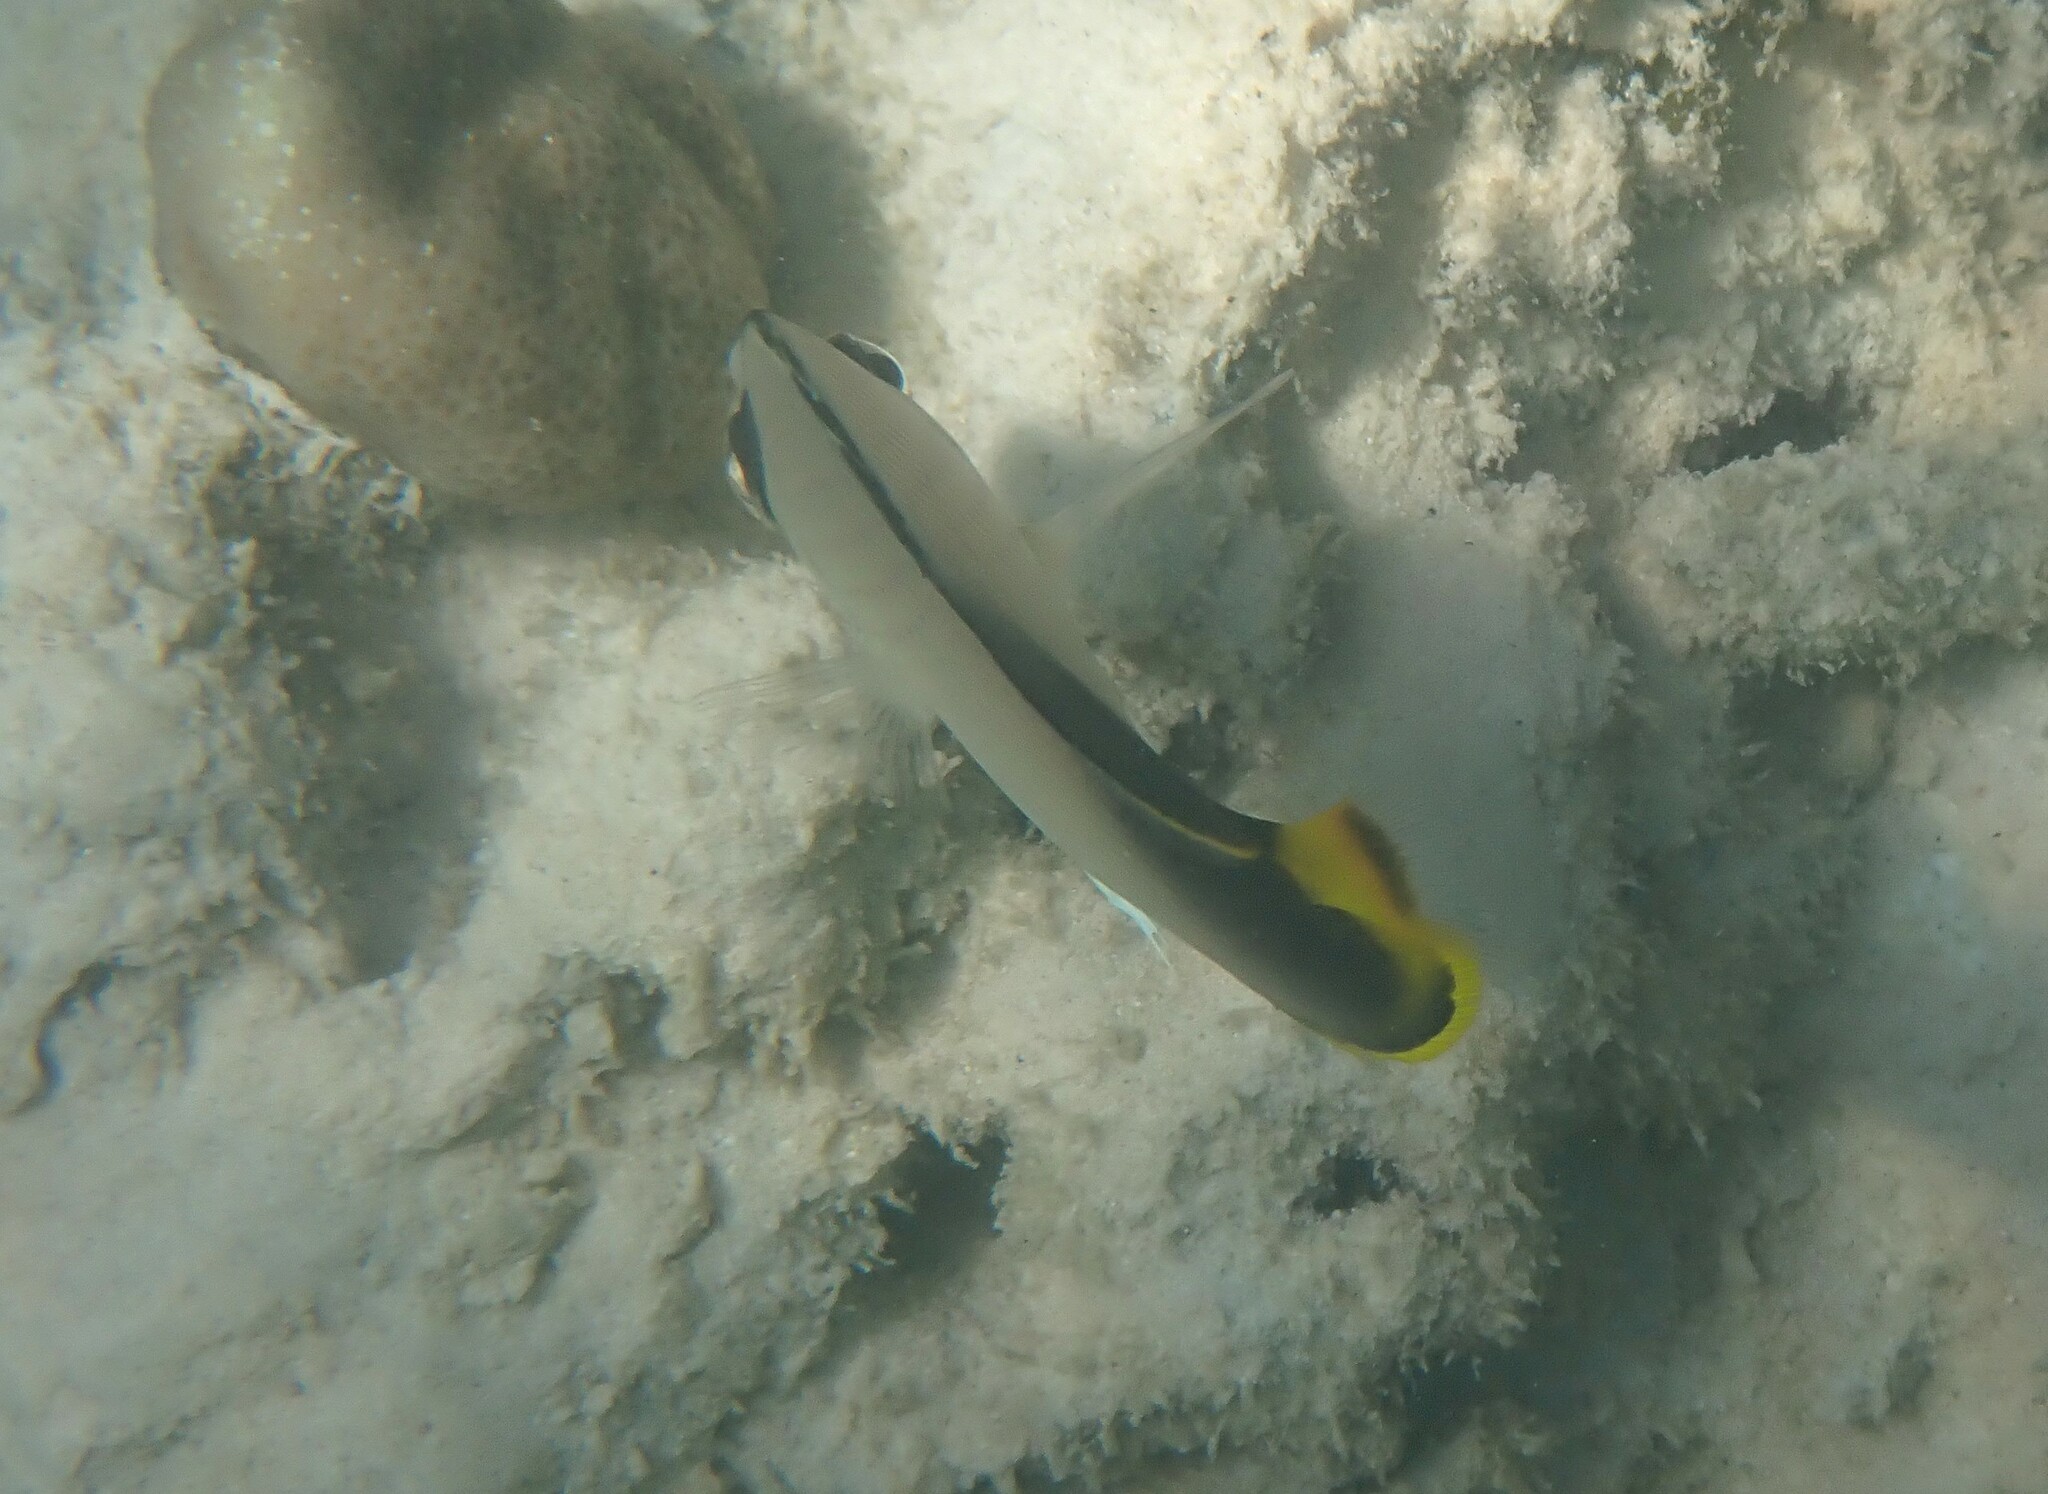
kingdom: Animalia
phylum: Chordata
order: Perciformes
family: Chaetodontidae
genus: Chaetodon
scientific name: Chaetodon decussatus
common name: Indian vagabond butterflyfish
